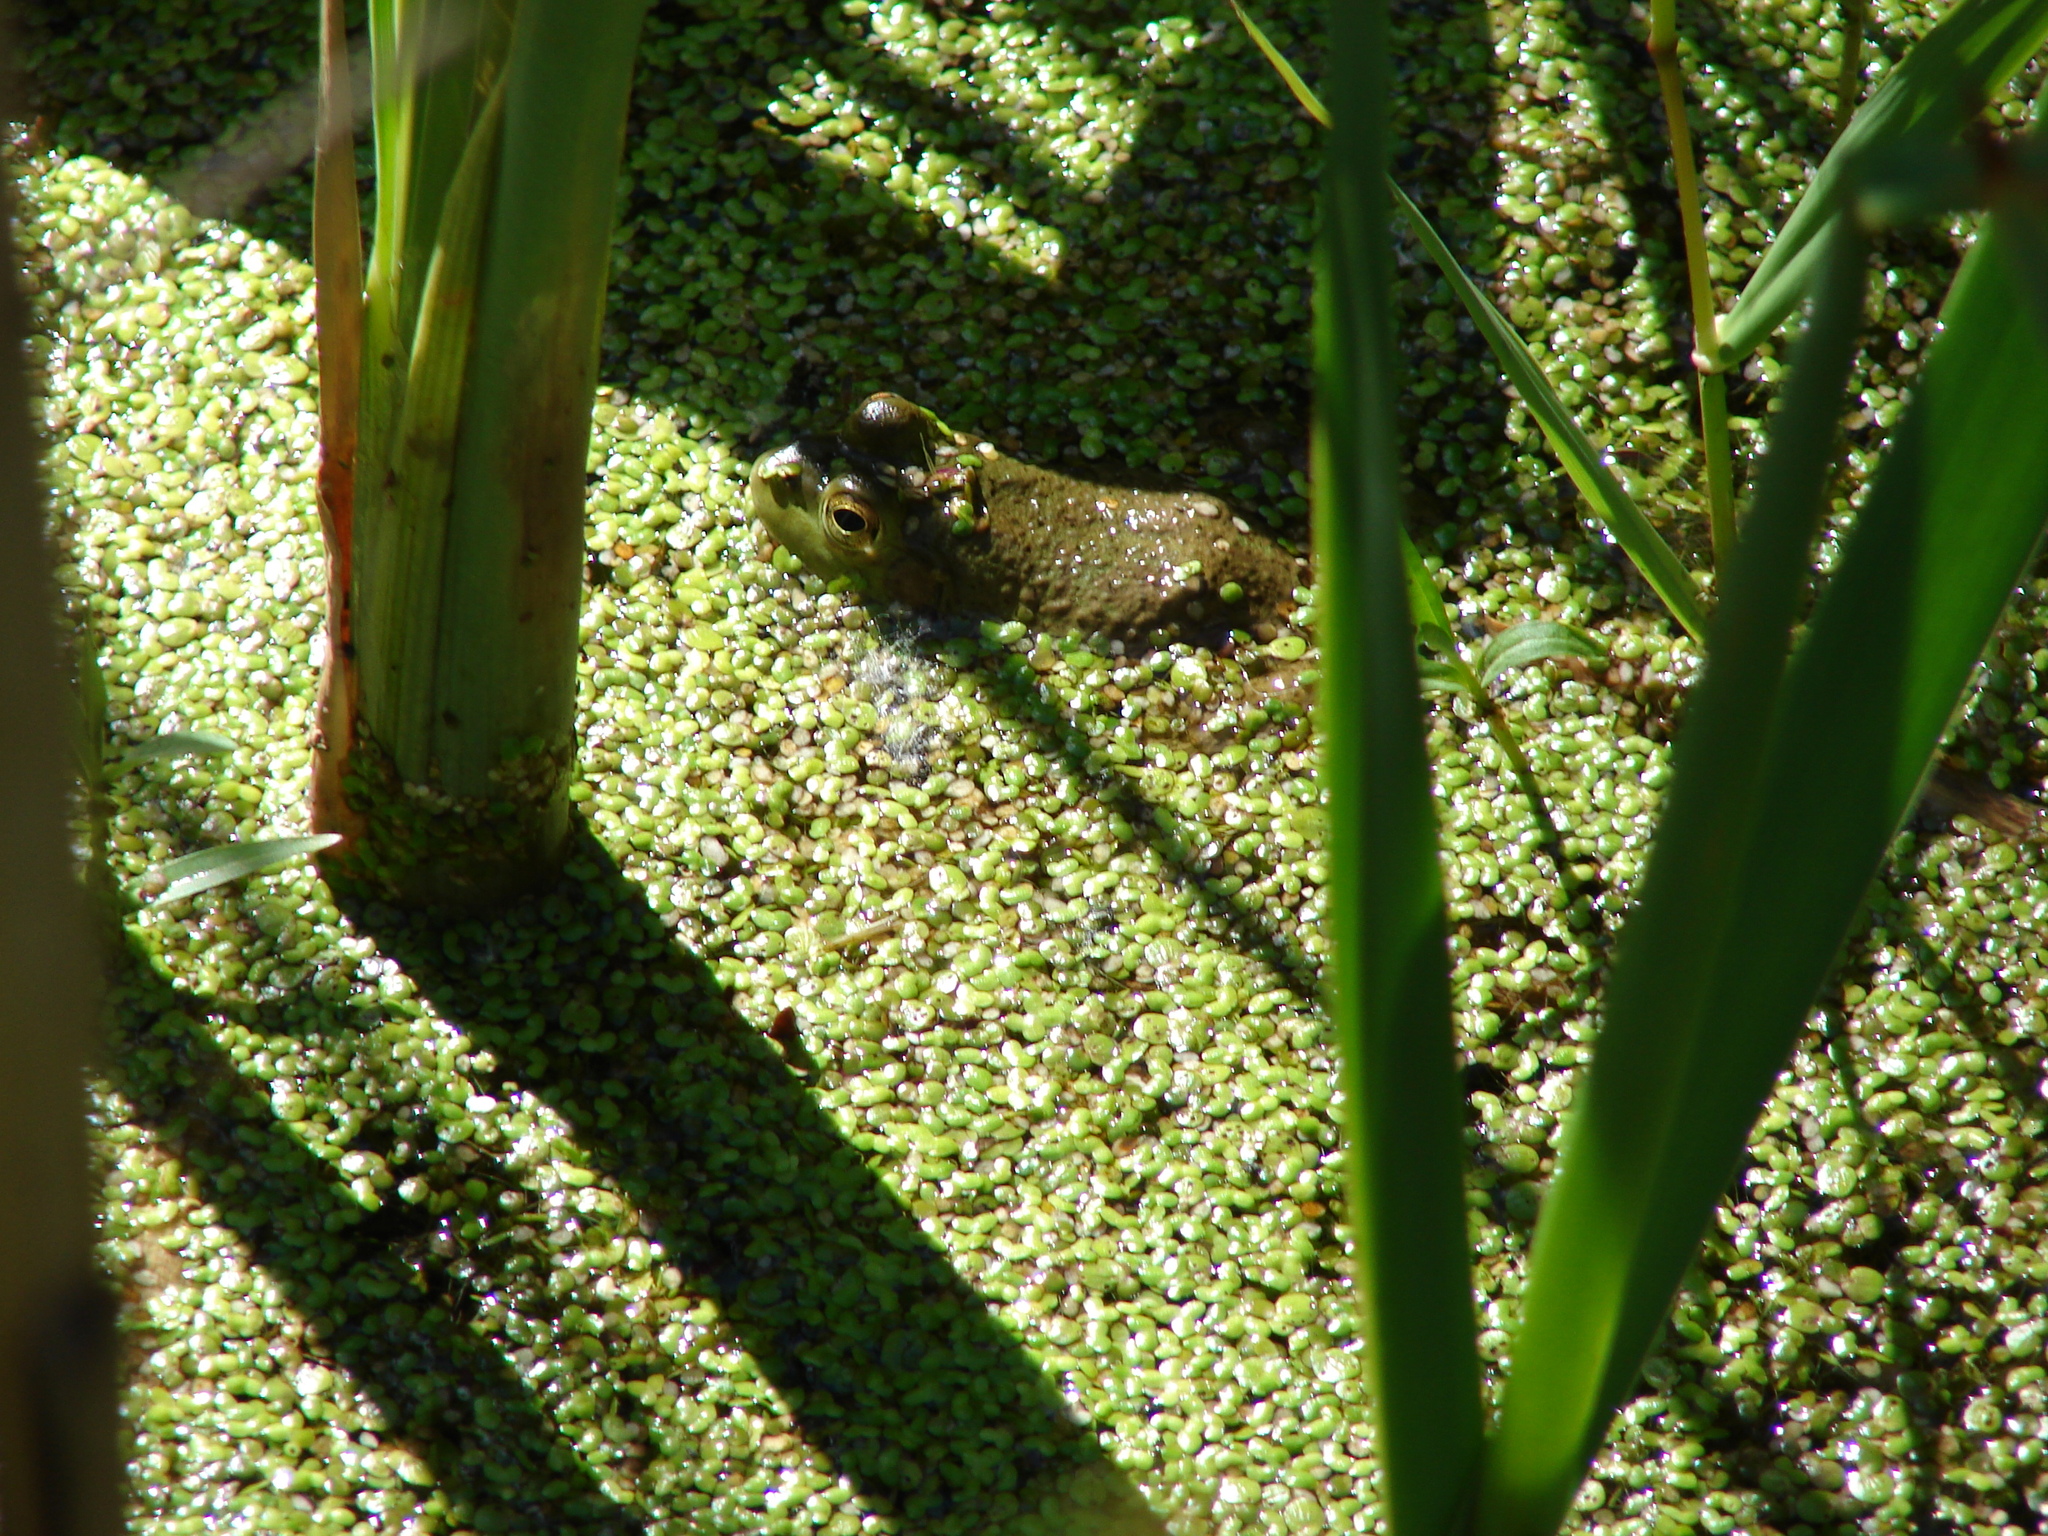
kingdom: Animalia
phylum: Chordata
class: Amphibia
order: Anura
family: Ranidae
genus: Lithobates
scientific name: Lithobates catesbeianus
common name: American bullfrog
